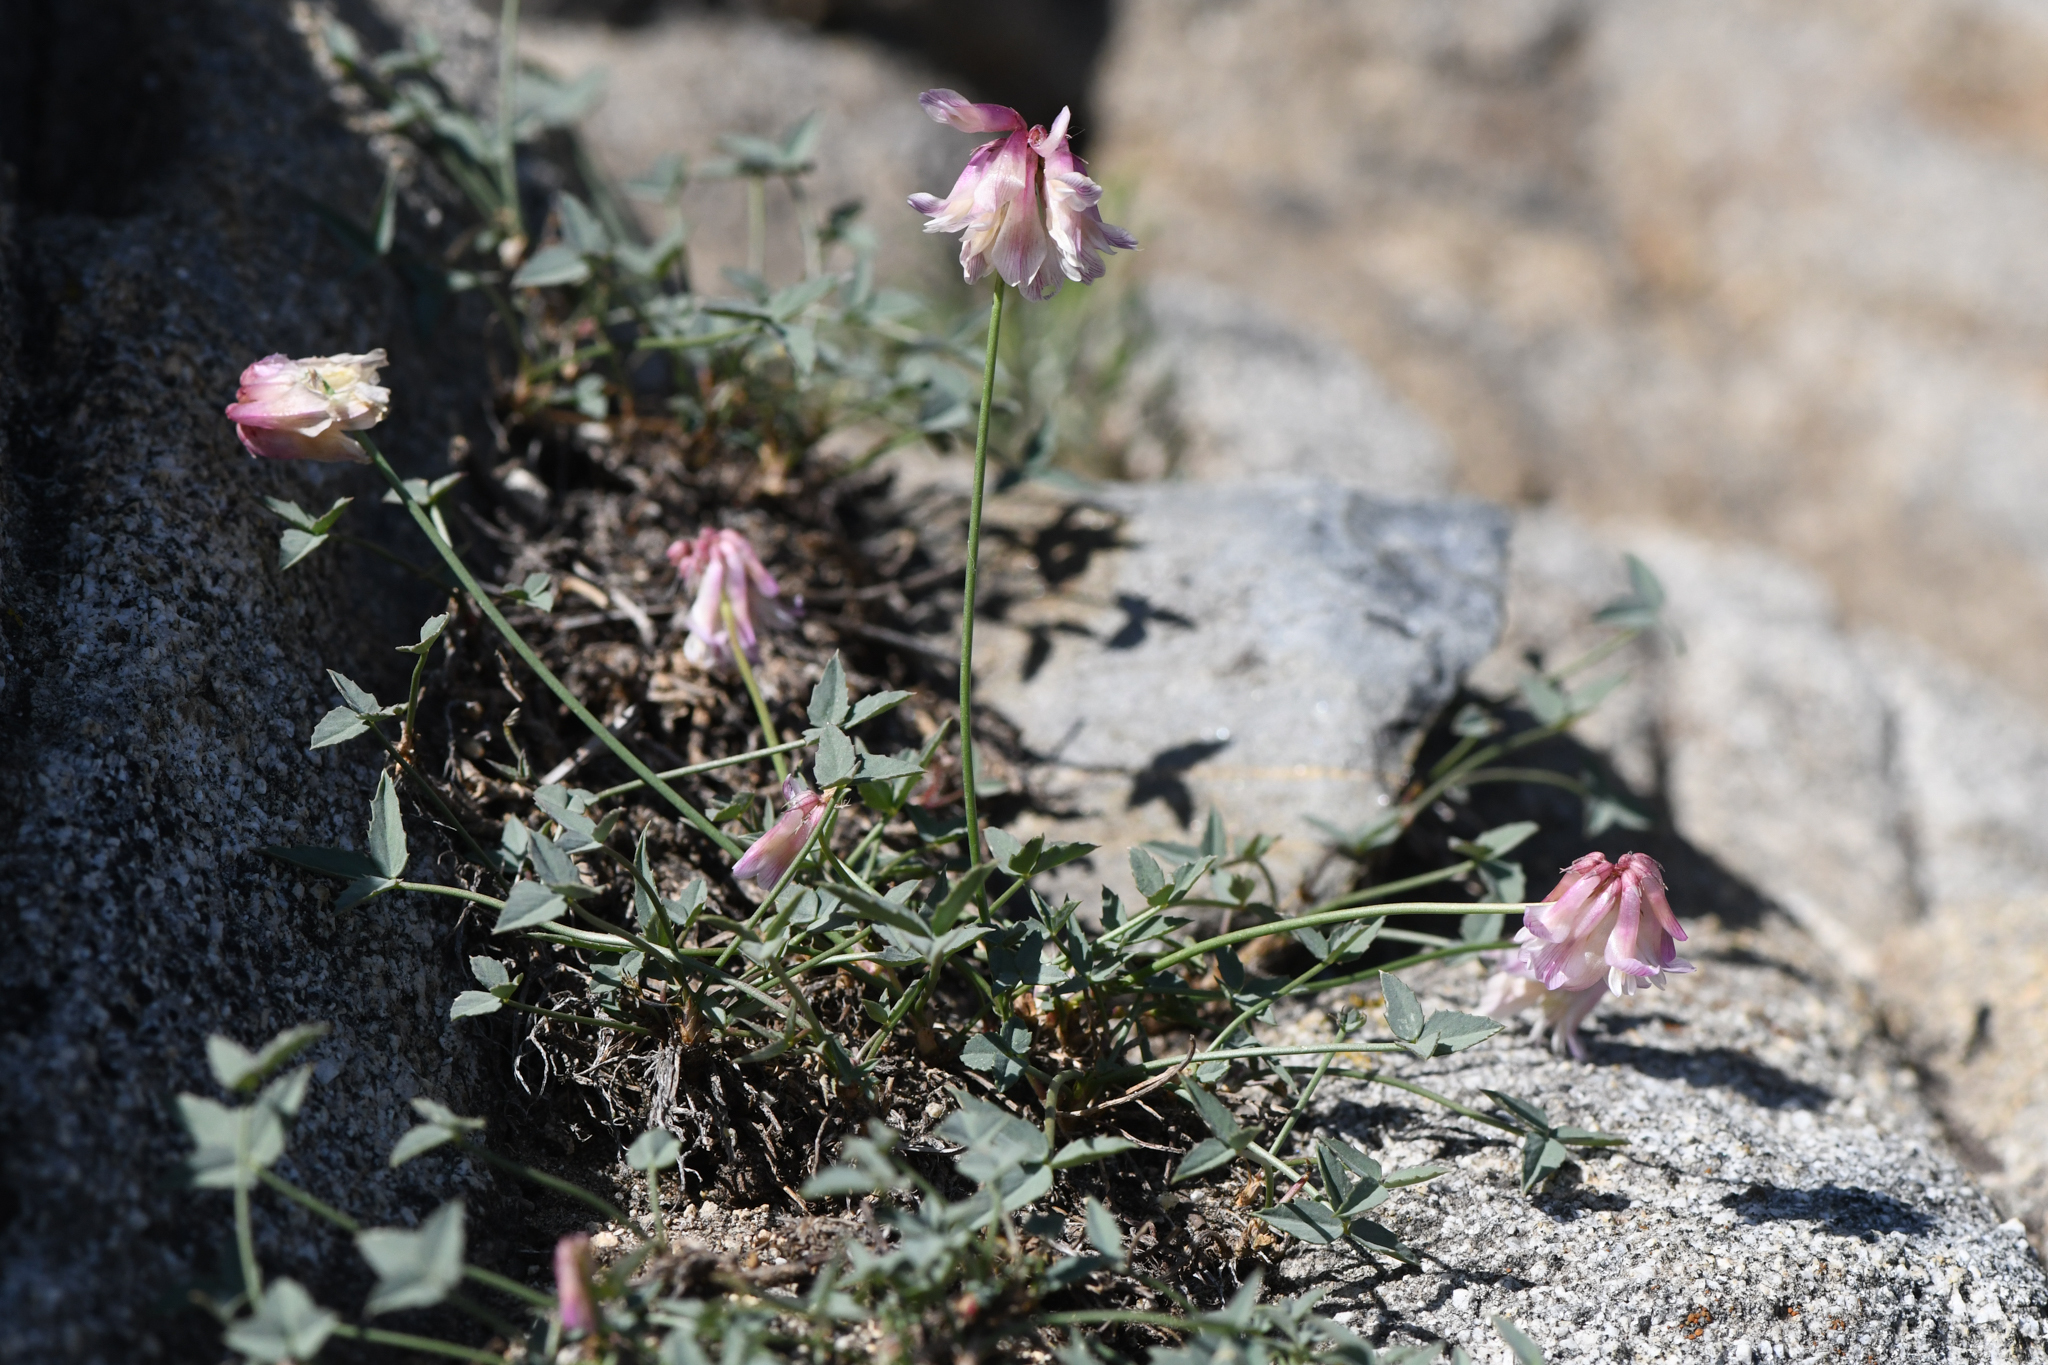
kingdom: Plantae
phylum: Tracheophyta
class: Magnoliopsida
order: Fabales
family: Fabaceae
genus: Trifolium
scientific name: Trifolium dedeckerae
